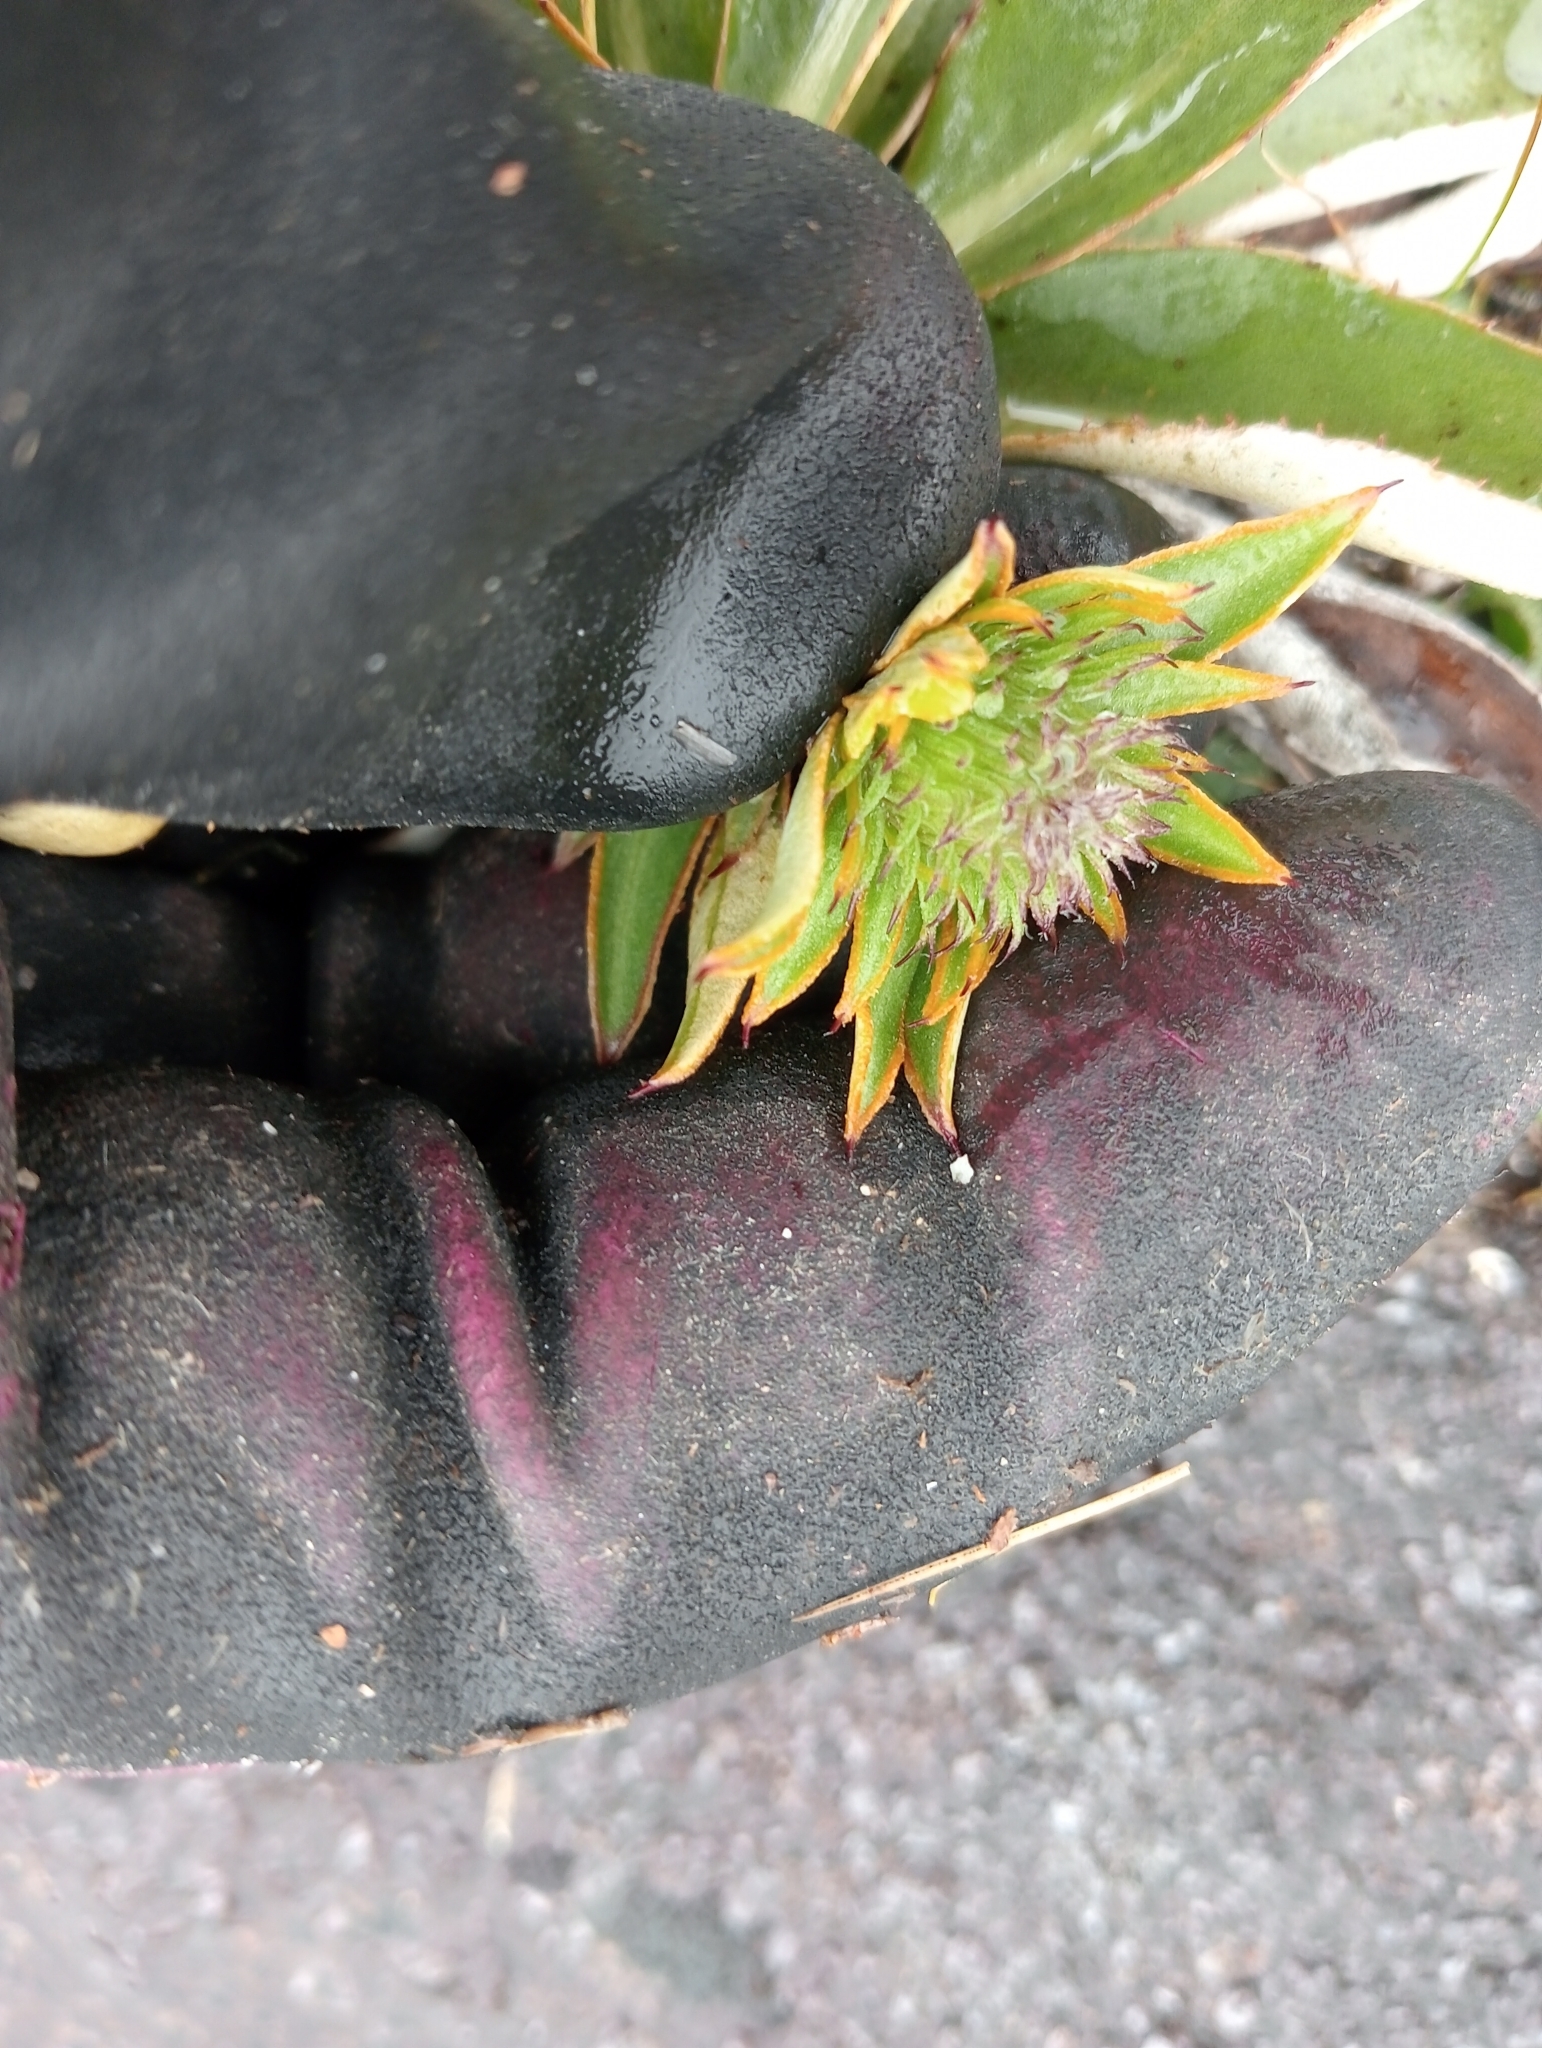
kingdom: Plantae
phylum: Tracheophyta
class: Magnoliopsida
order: Asterales
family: Asteraceae
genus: Celmisia
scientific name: Celmisia dallii
